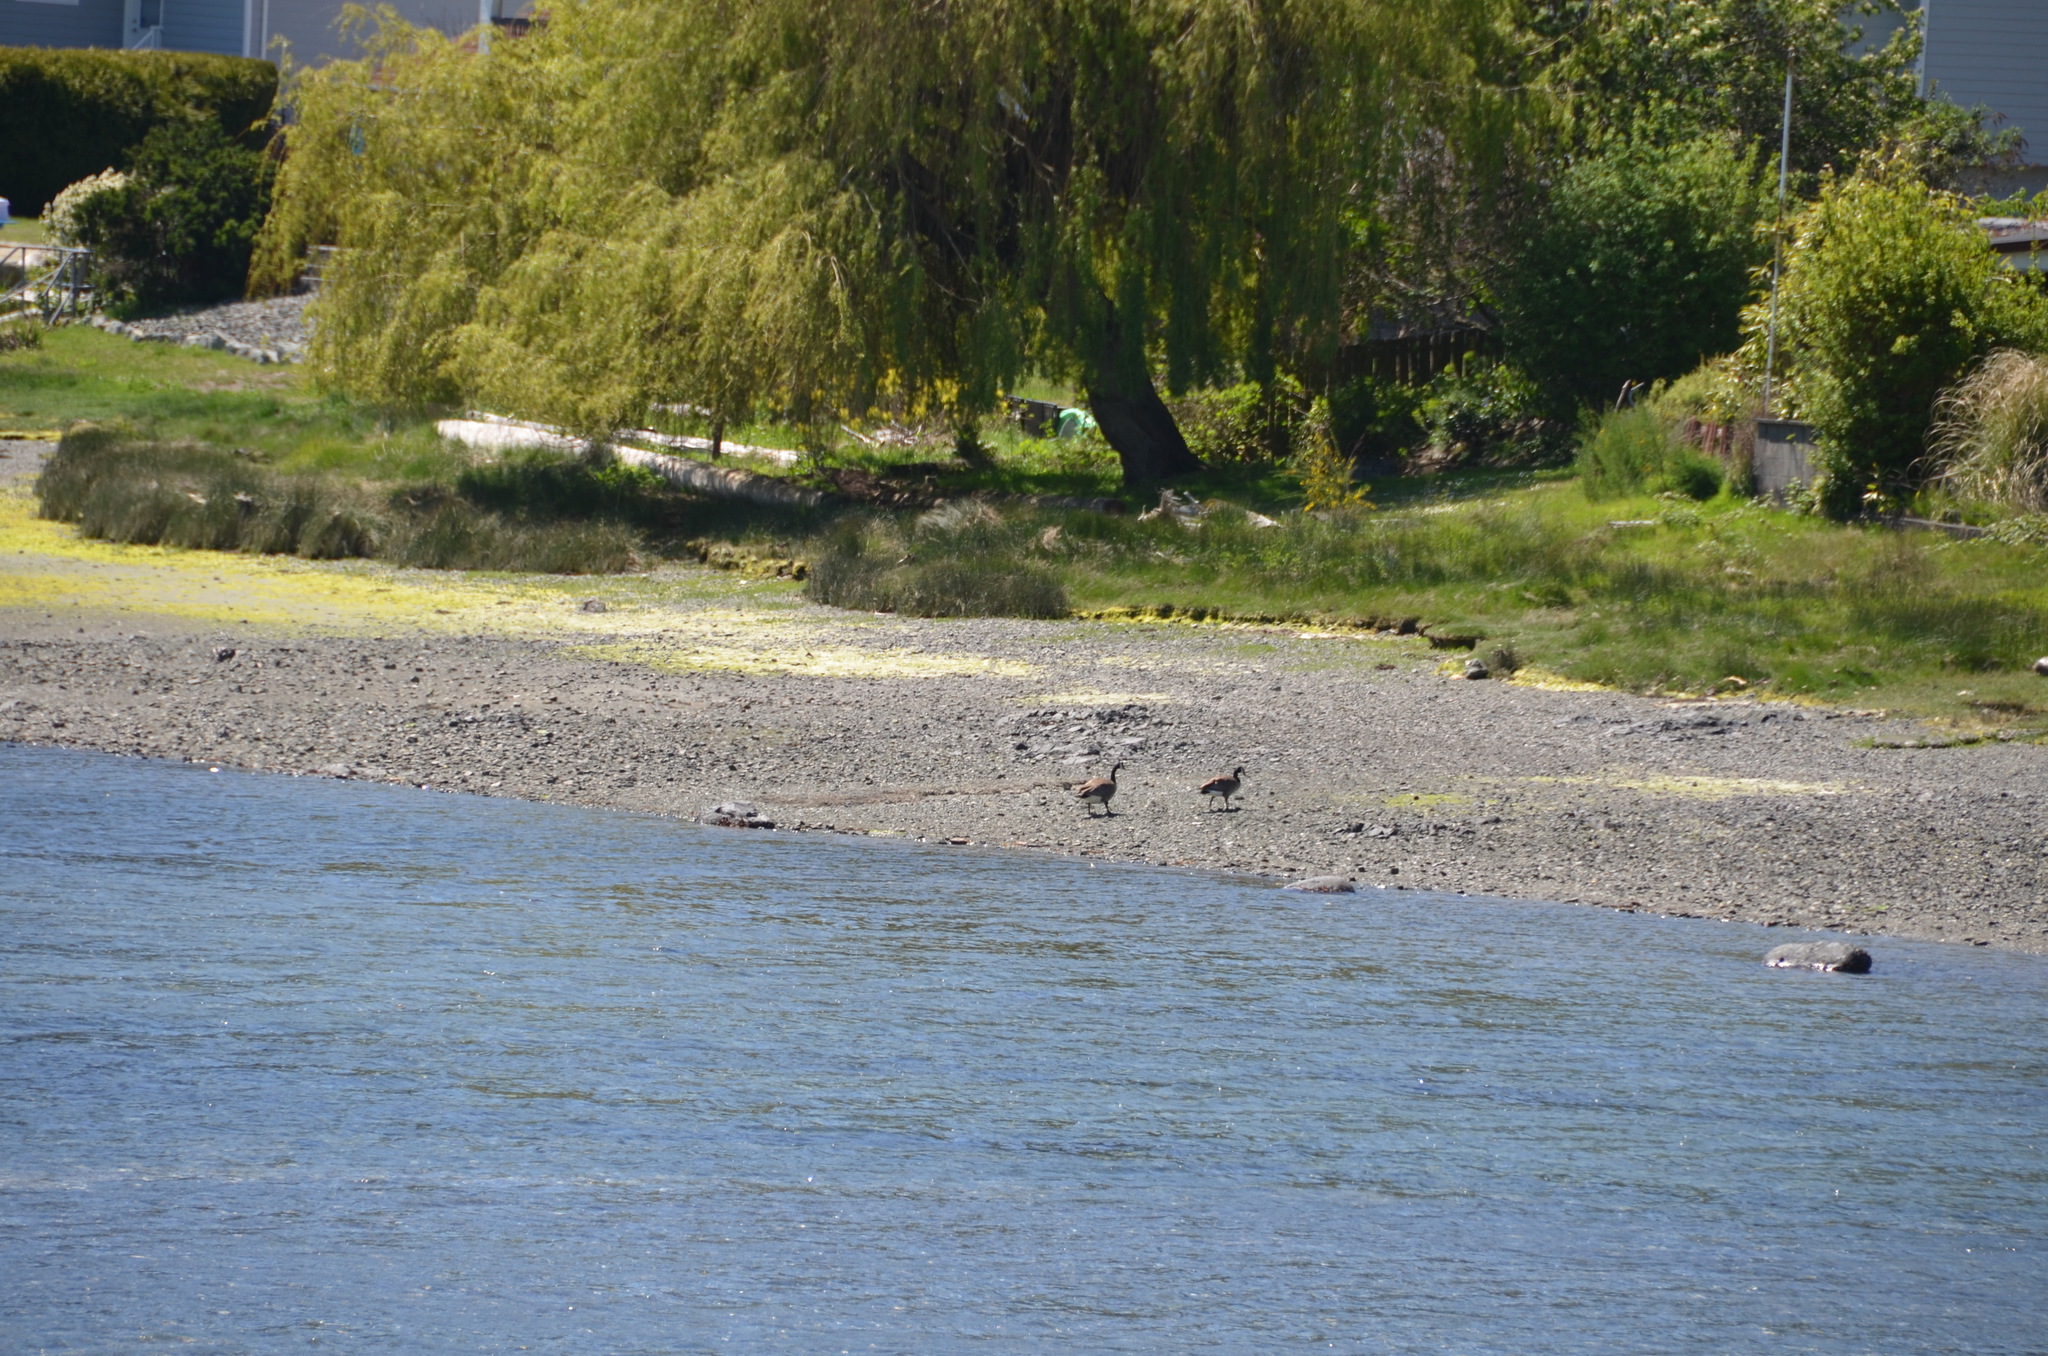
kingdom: Animalia
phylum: Chordata
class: Aves
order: Anseriformes
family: Anatidae
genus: Branta
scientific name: Branta canadensis
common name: Canada goose
